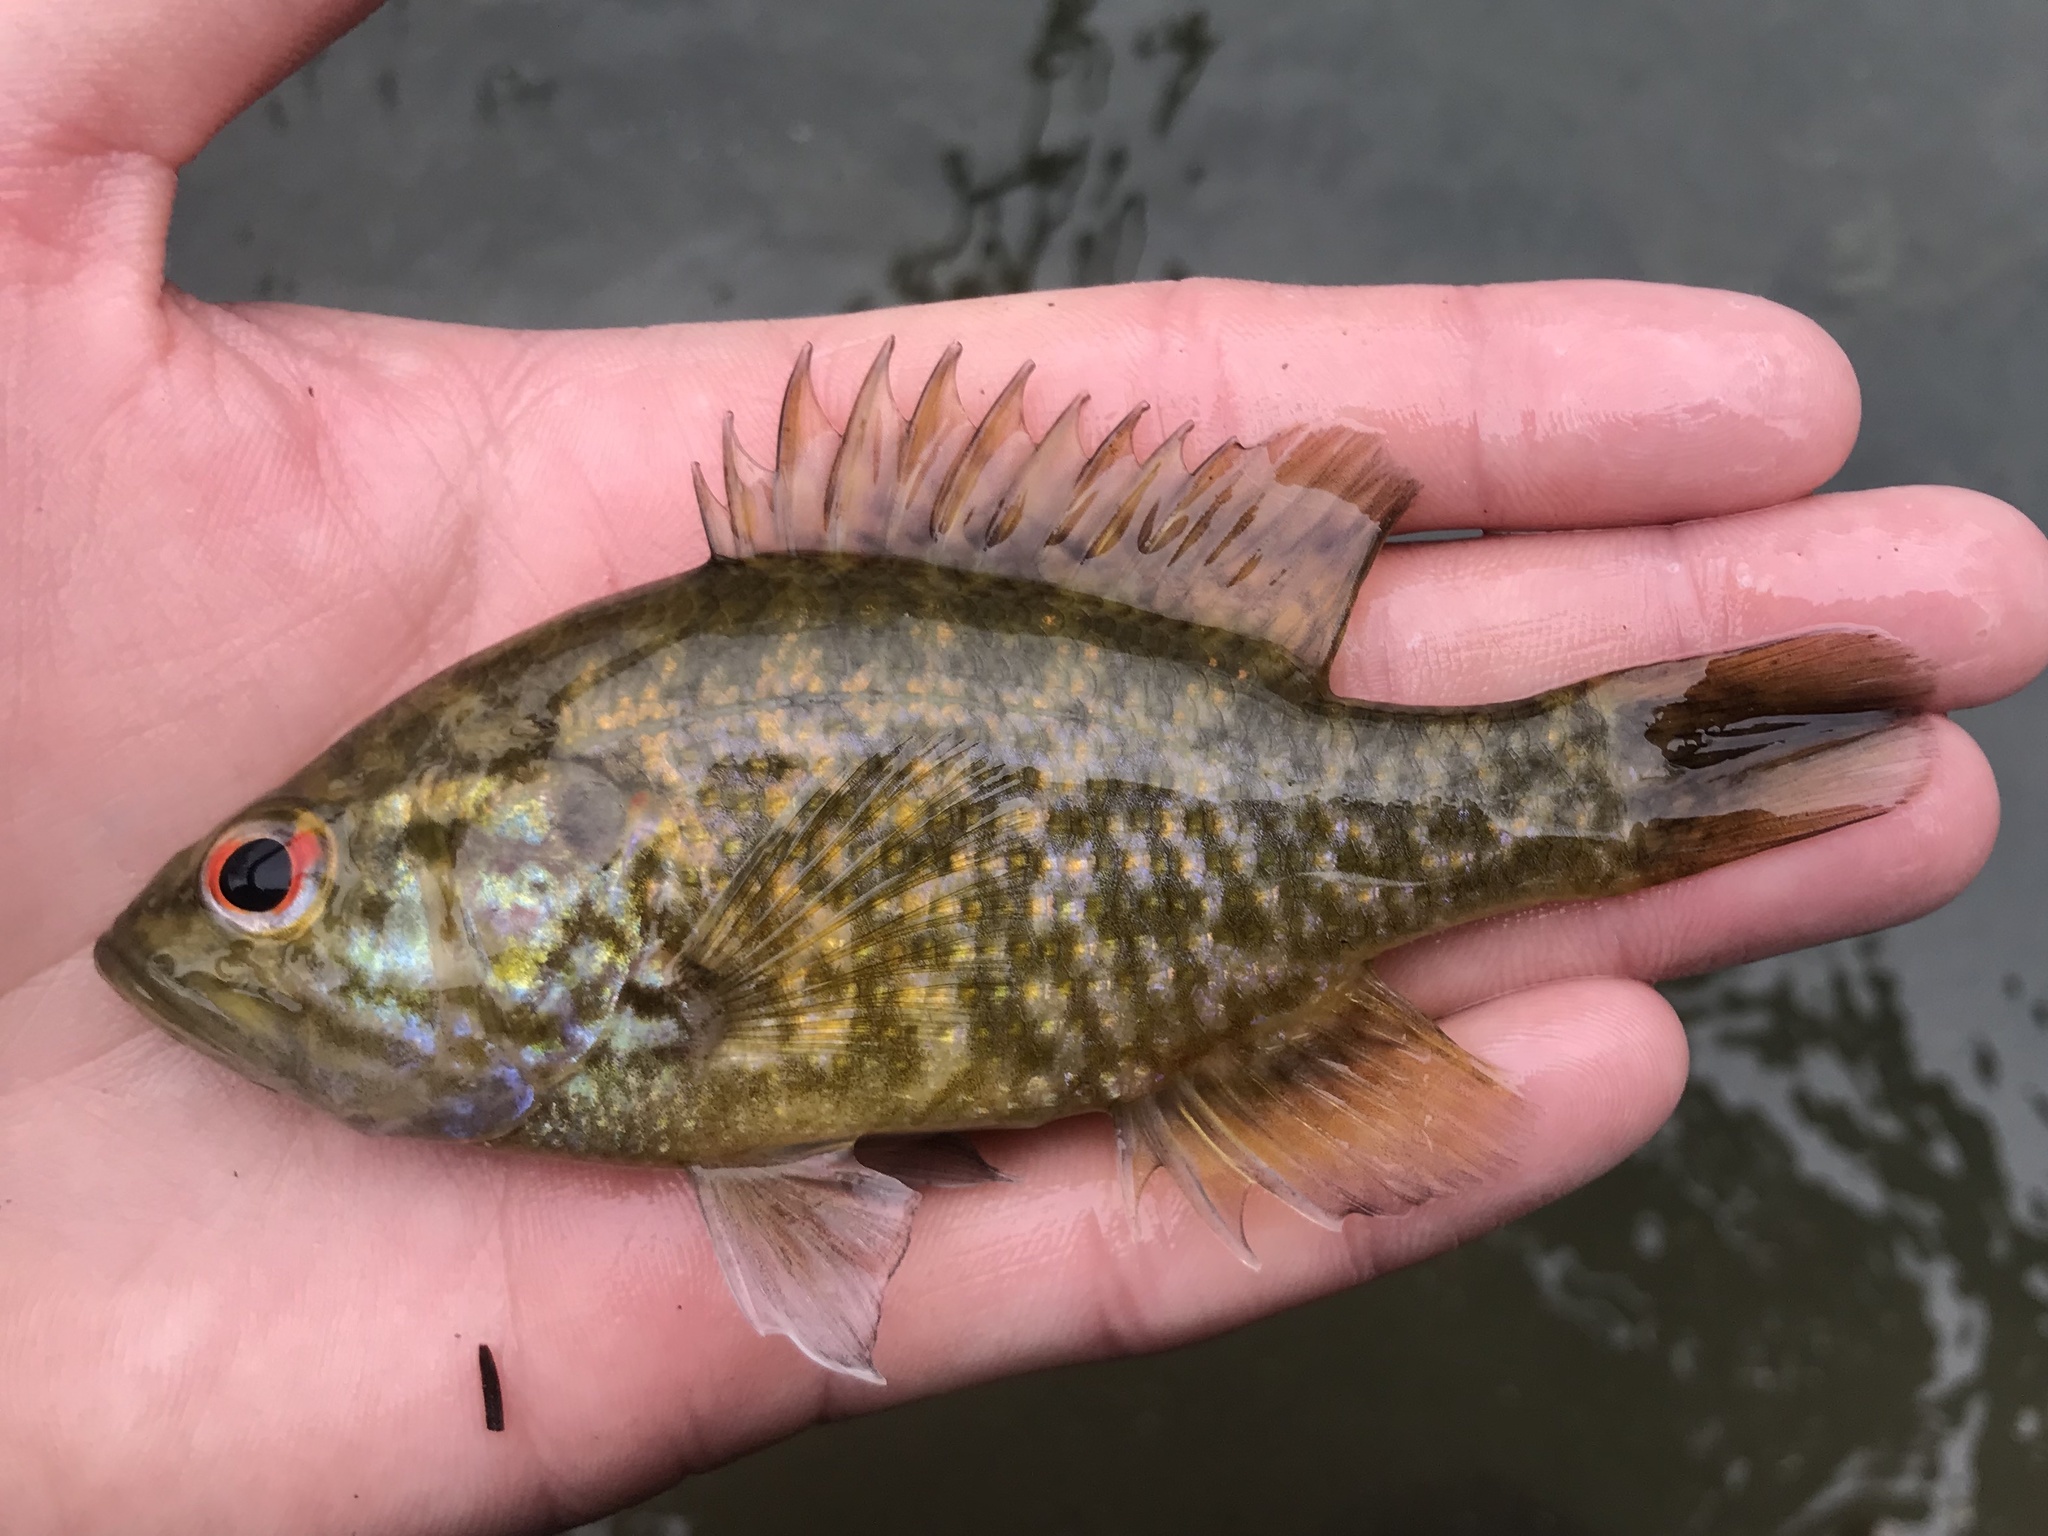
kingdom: Animalia
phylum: Chordata
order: Perciformes
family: Centrarchidae
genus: Lepomis
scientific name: Lepomis gulosus
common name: Warmouth
